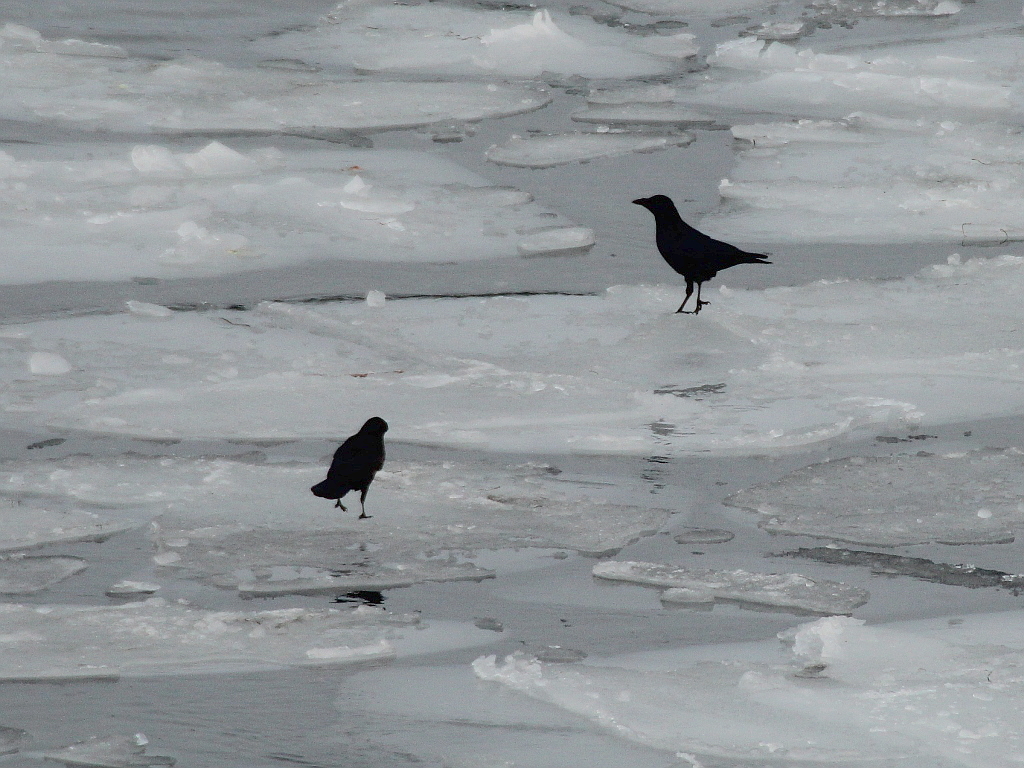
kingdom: Animalia
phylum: Chordata
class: Aves
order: Passeriformes
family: Corvidae
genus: Corvus
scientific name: Corvus corone
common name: Carrion crow
